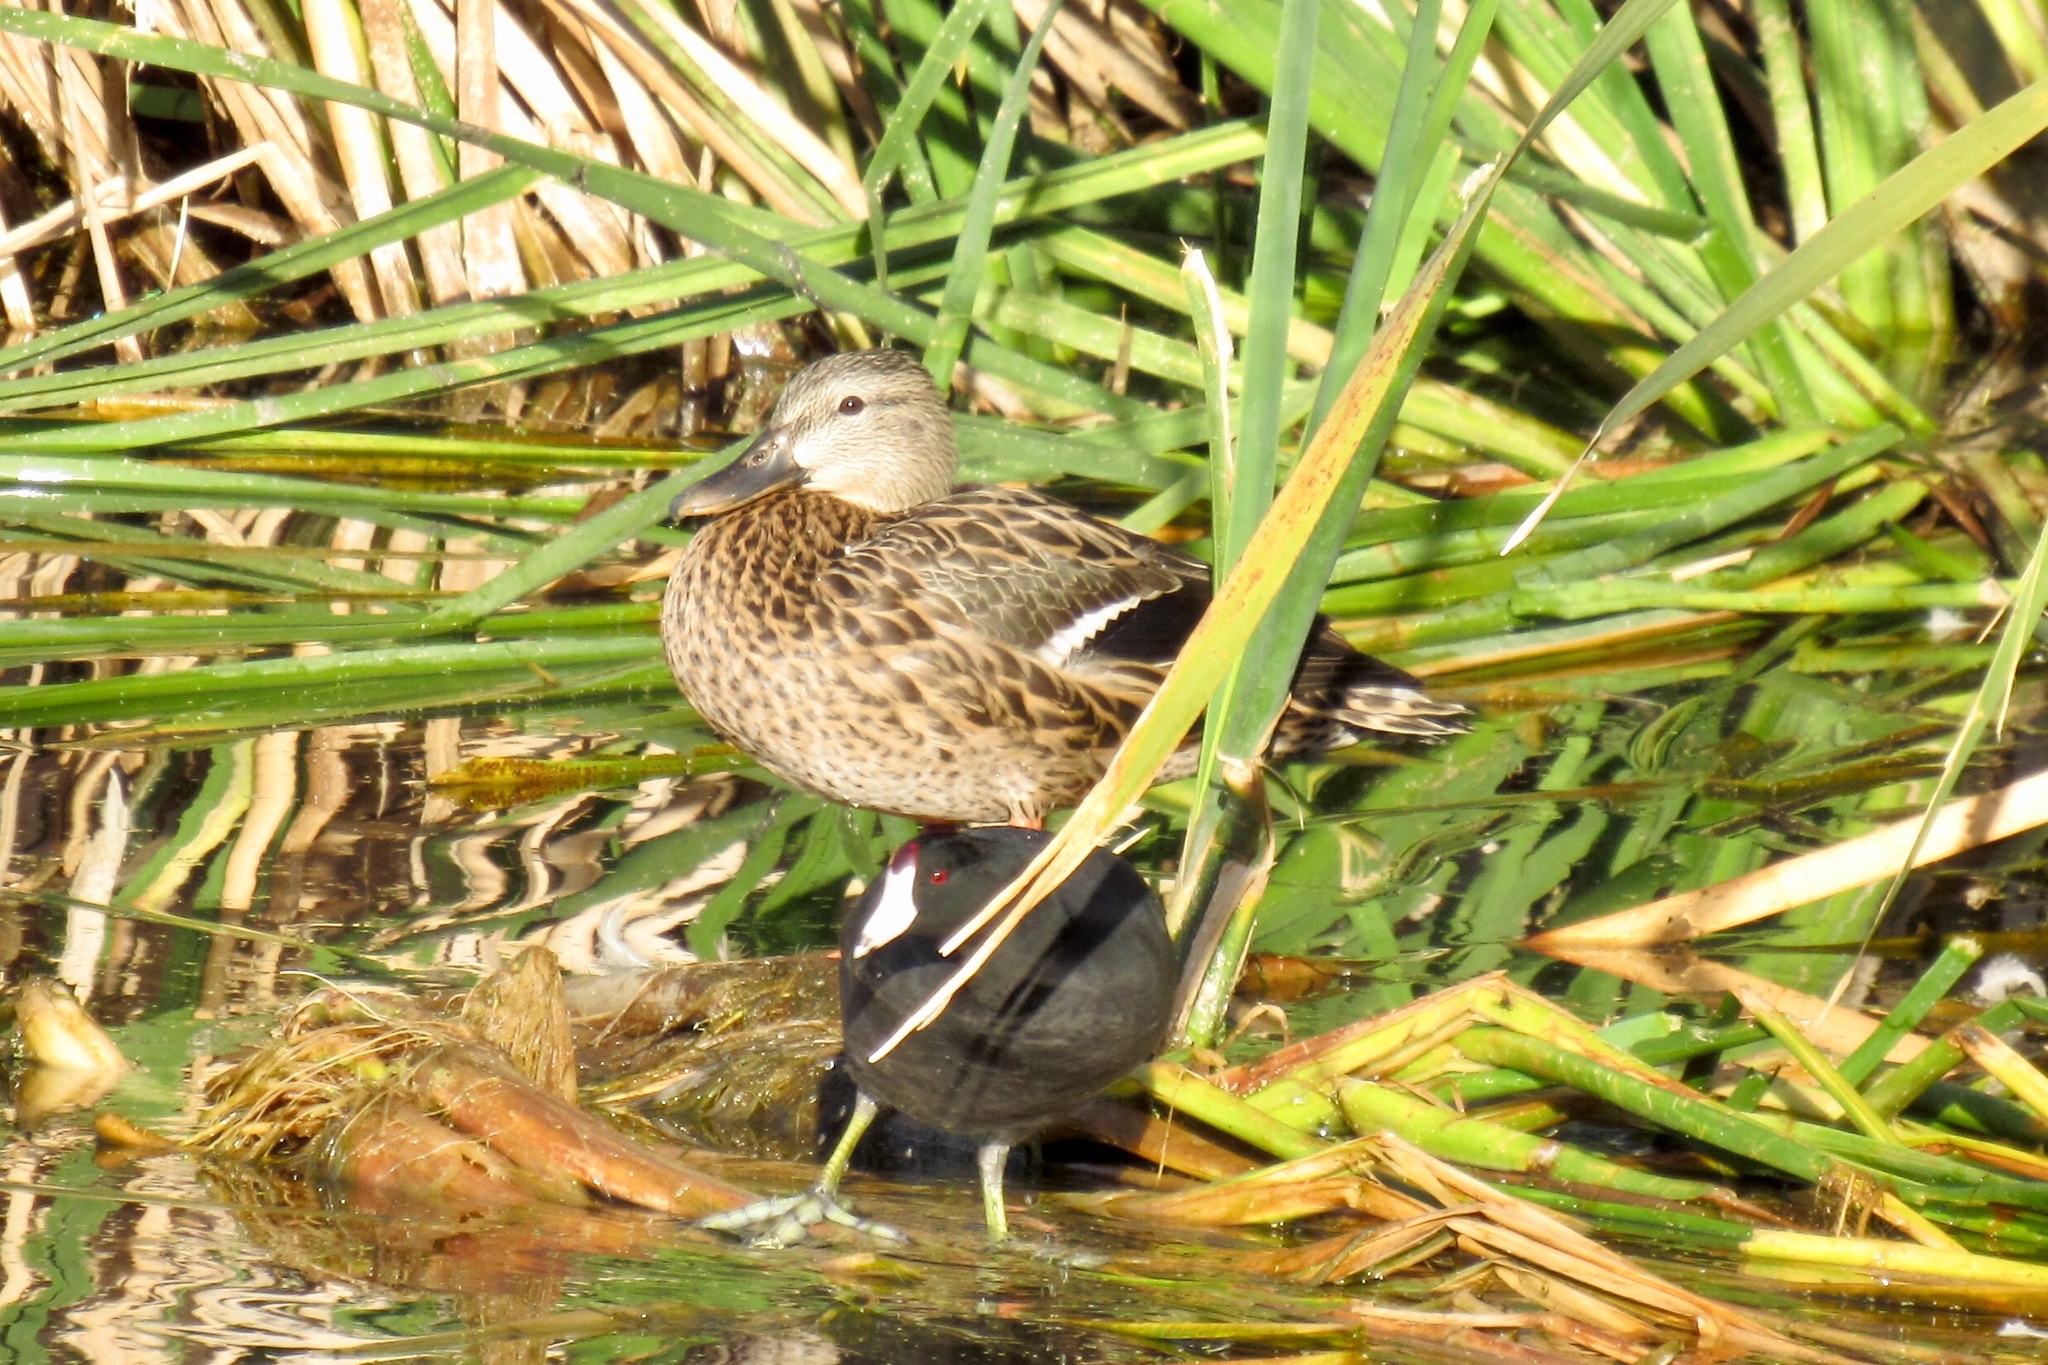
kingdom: Animalia
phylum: Chordata
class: Aves
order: Gruiformes
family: Rallidae
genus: Fulica
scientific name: Fulica americana
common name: American coot
